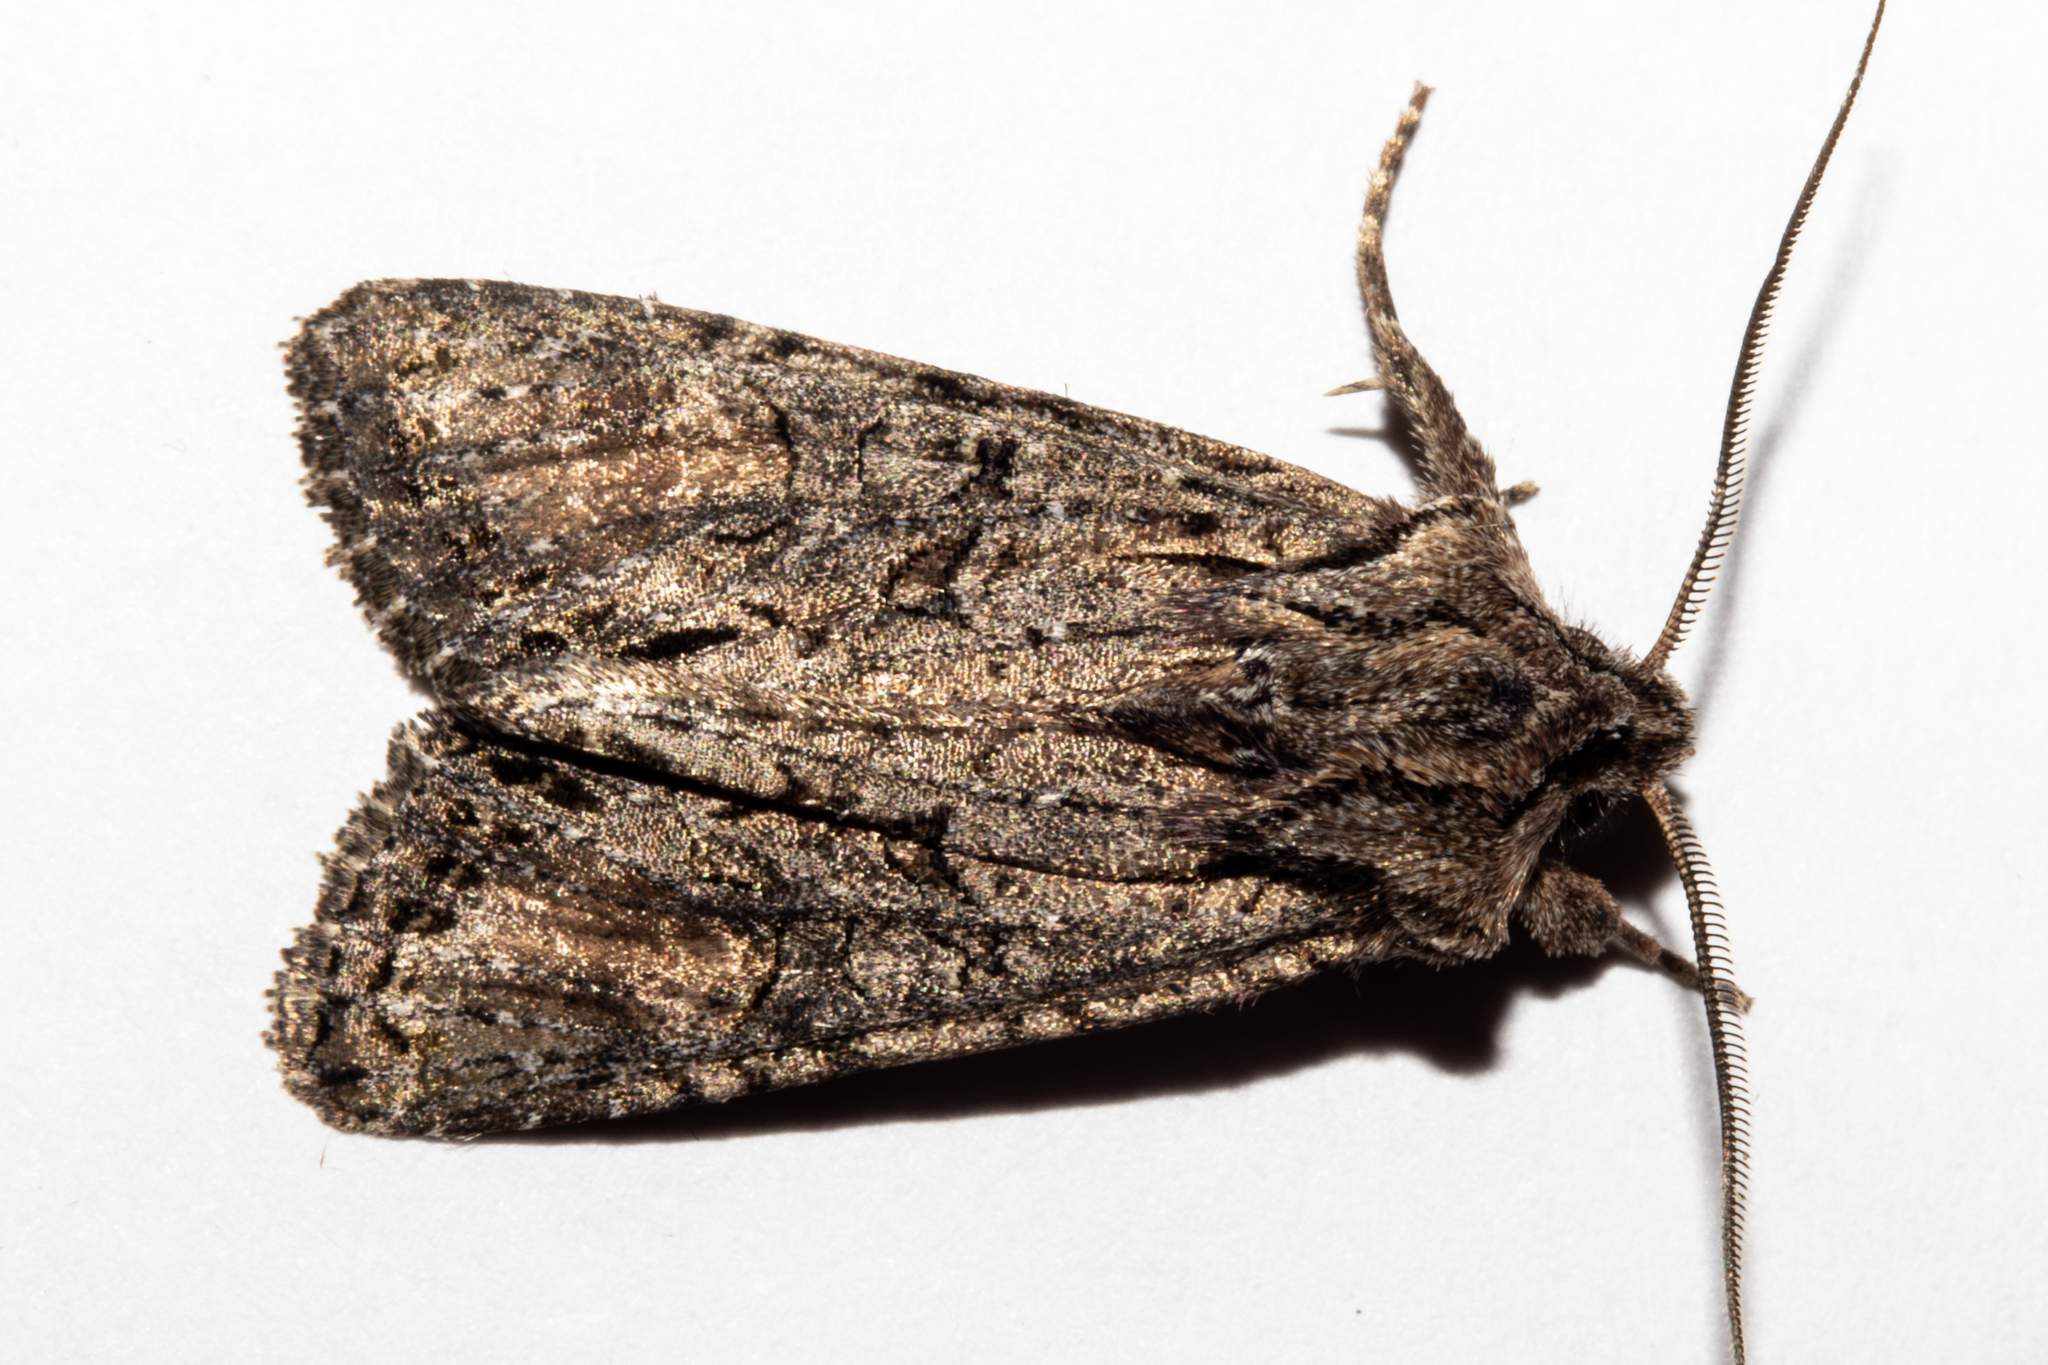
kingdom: Animalia
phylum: Arthropoda
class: Insecta
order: Lepidoptera
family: Noctuidae
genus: Ichneutica
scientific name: Ichneutica mutans
